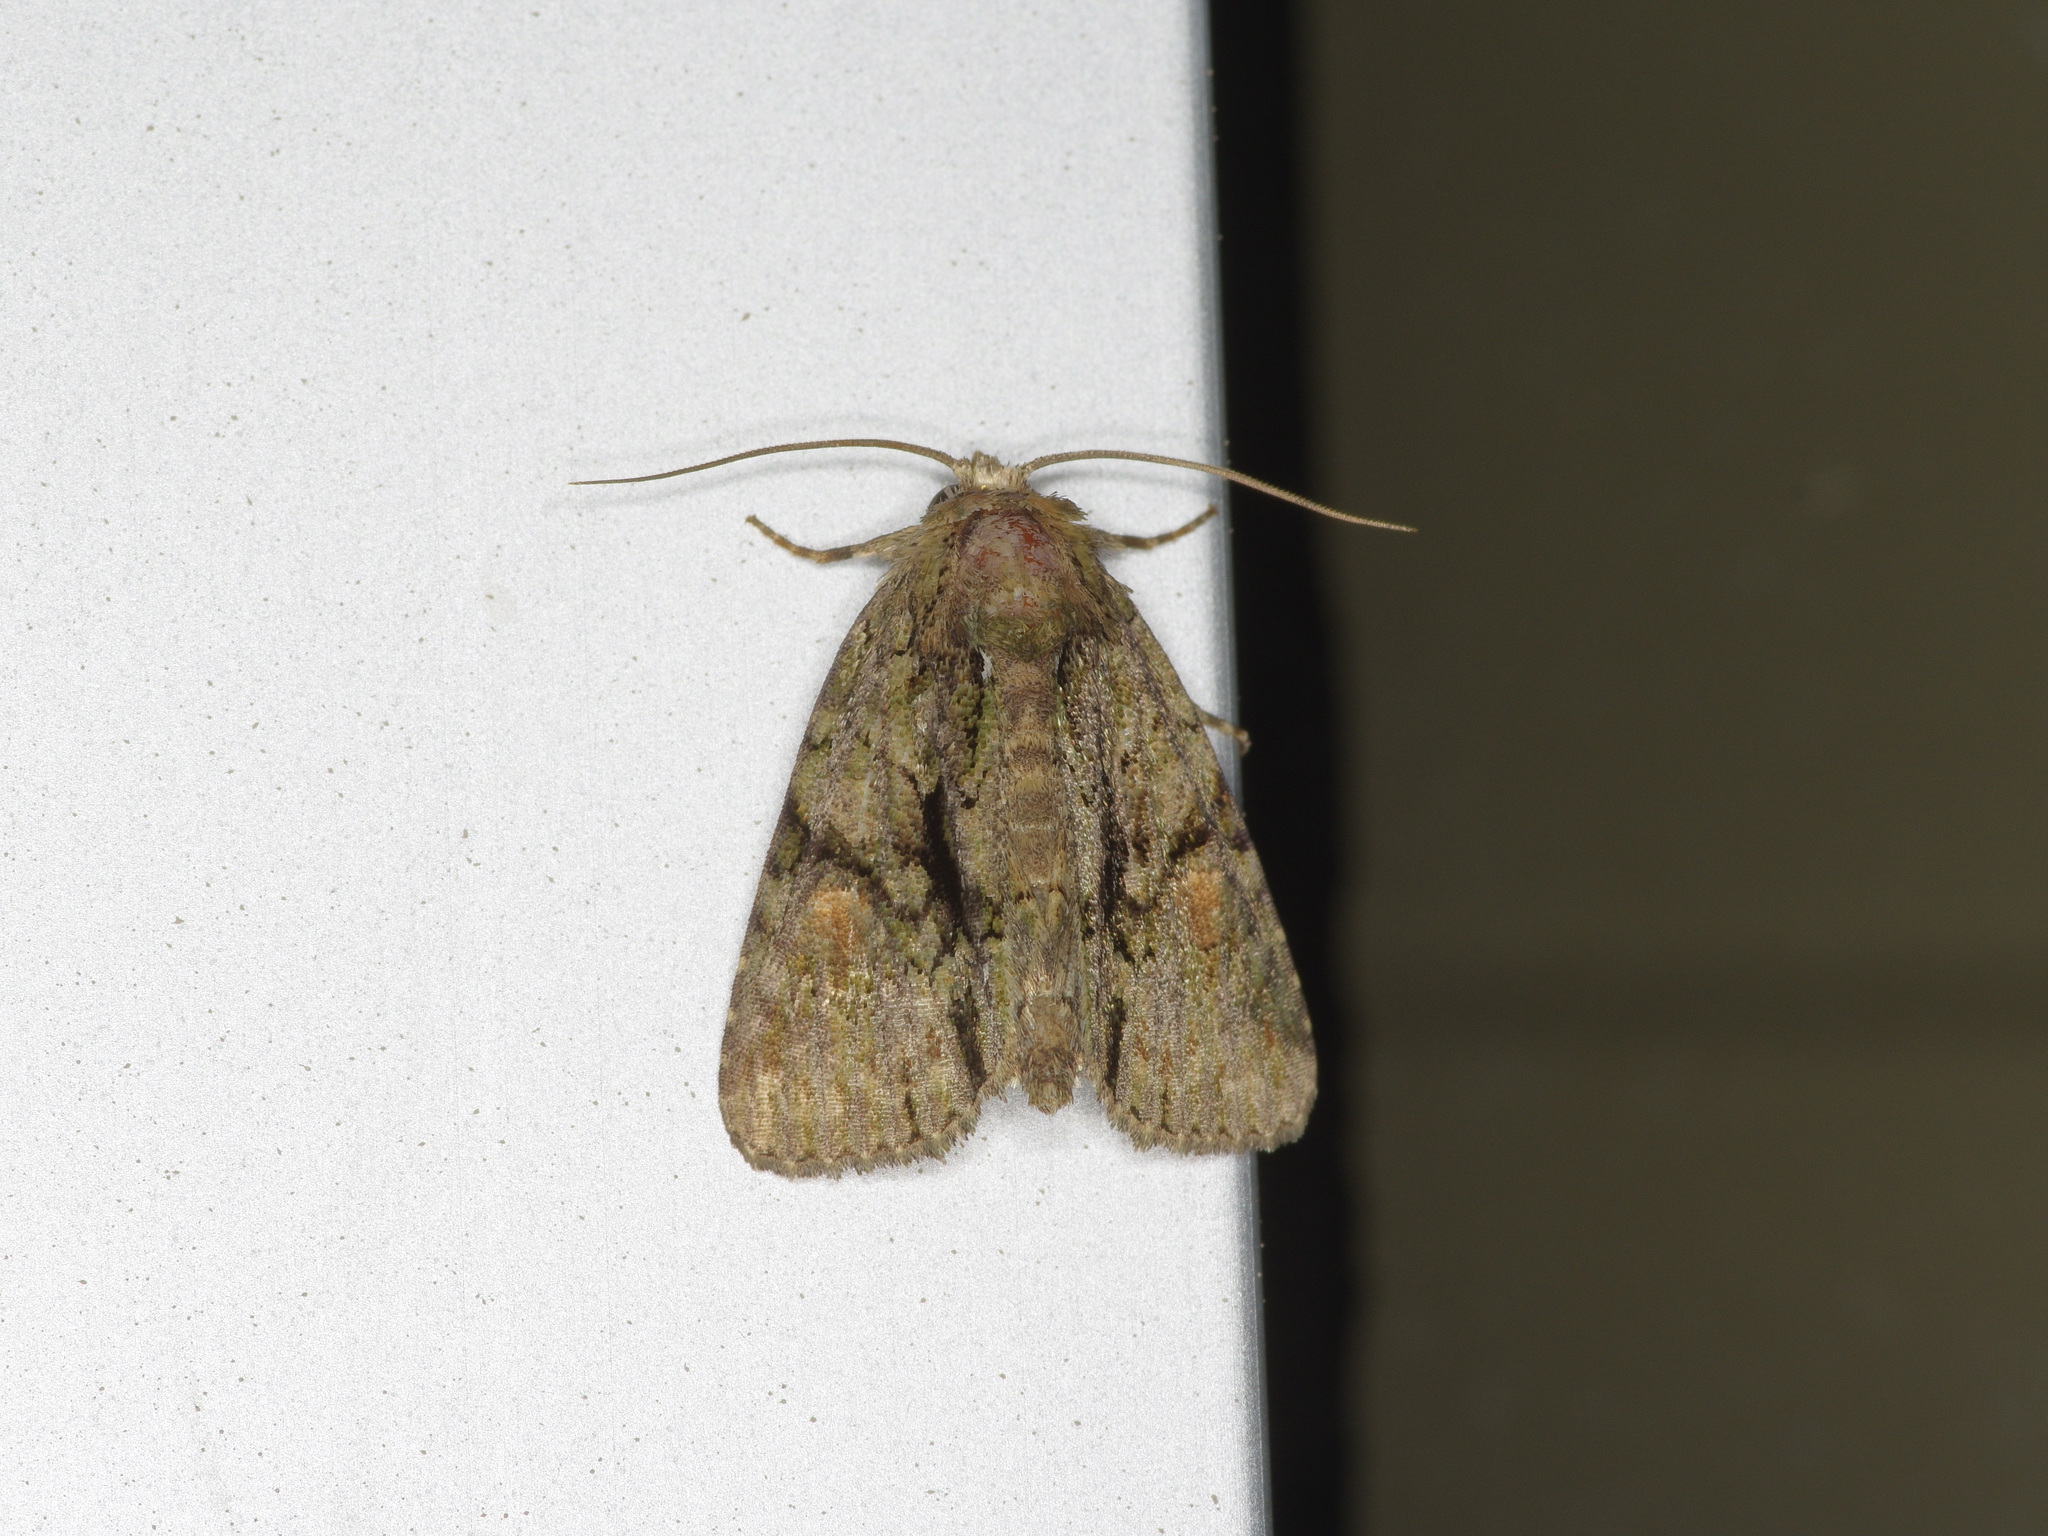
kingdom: Animalia
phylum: Arthropoda
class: Insecta
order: Lepidoptera
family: Noctuidae
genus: Phosphila
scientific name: Phosphila miselioides
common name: Spotted phosphila moth
